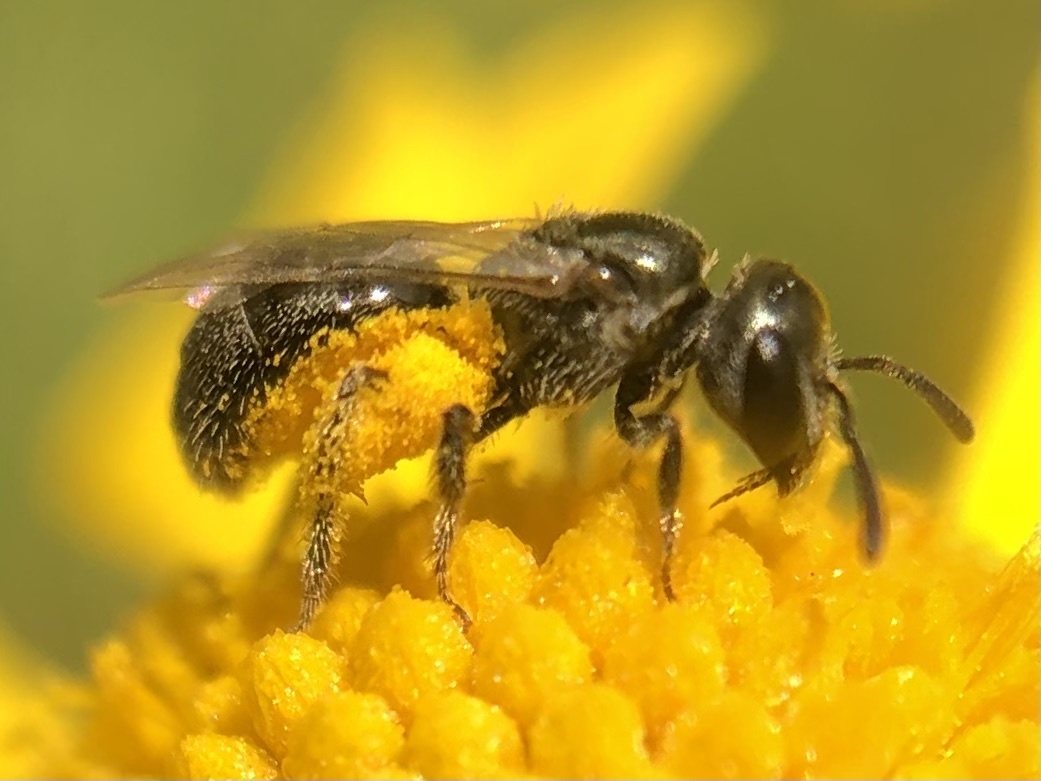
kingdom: Animalia
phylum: Arthropoda
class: Insecta
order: Hymenoptera
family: Halictidae
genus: Lasioglossum
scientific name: Lasioglossum imitatum
